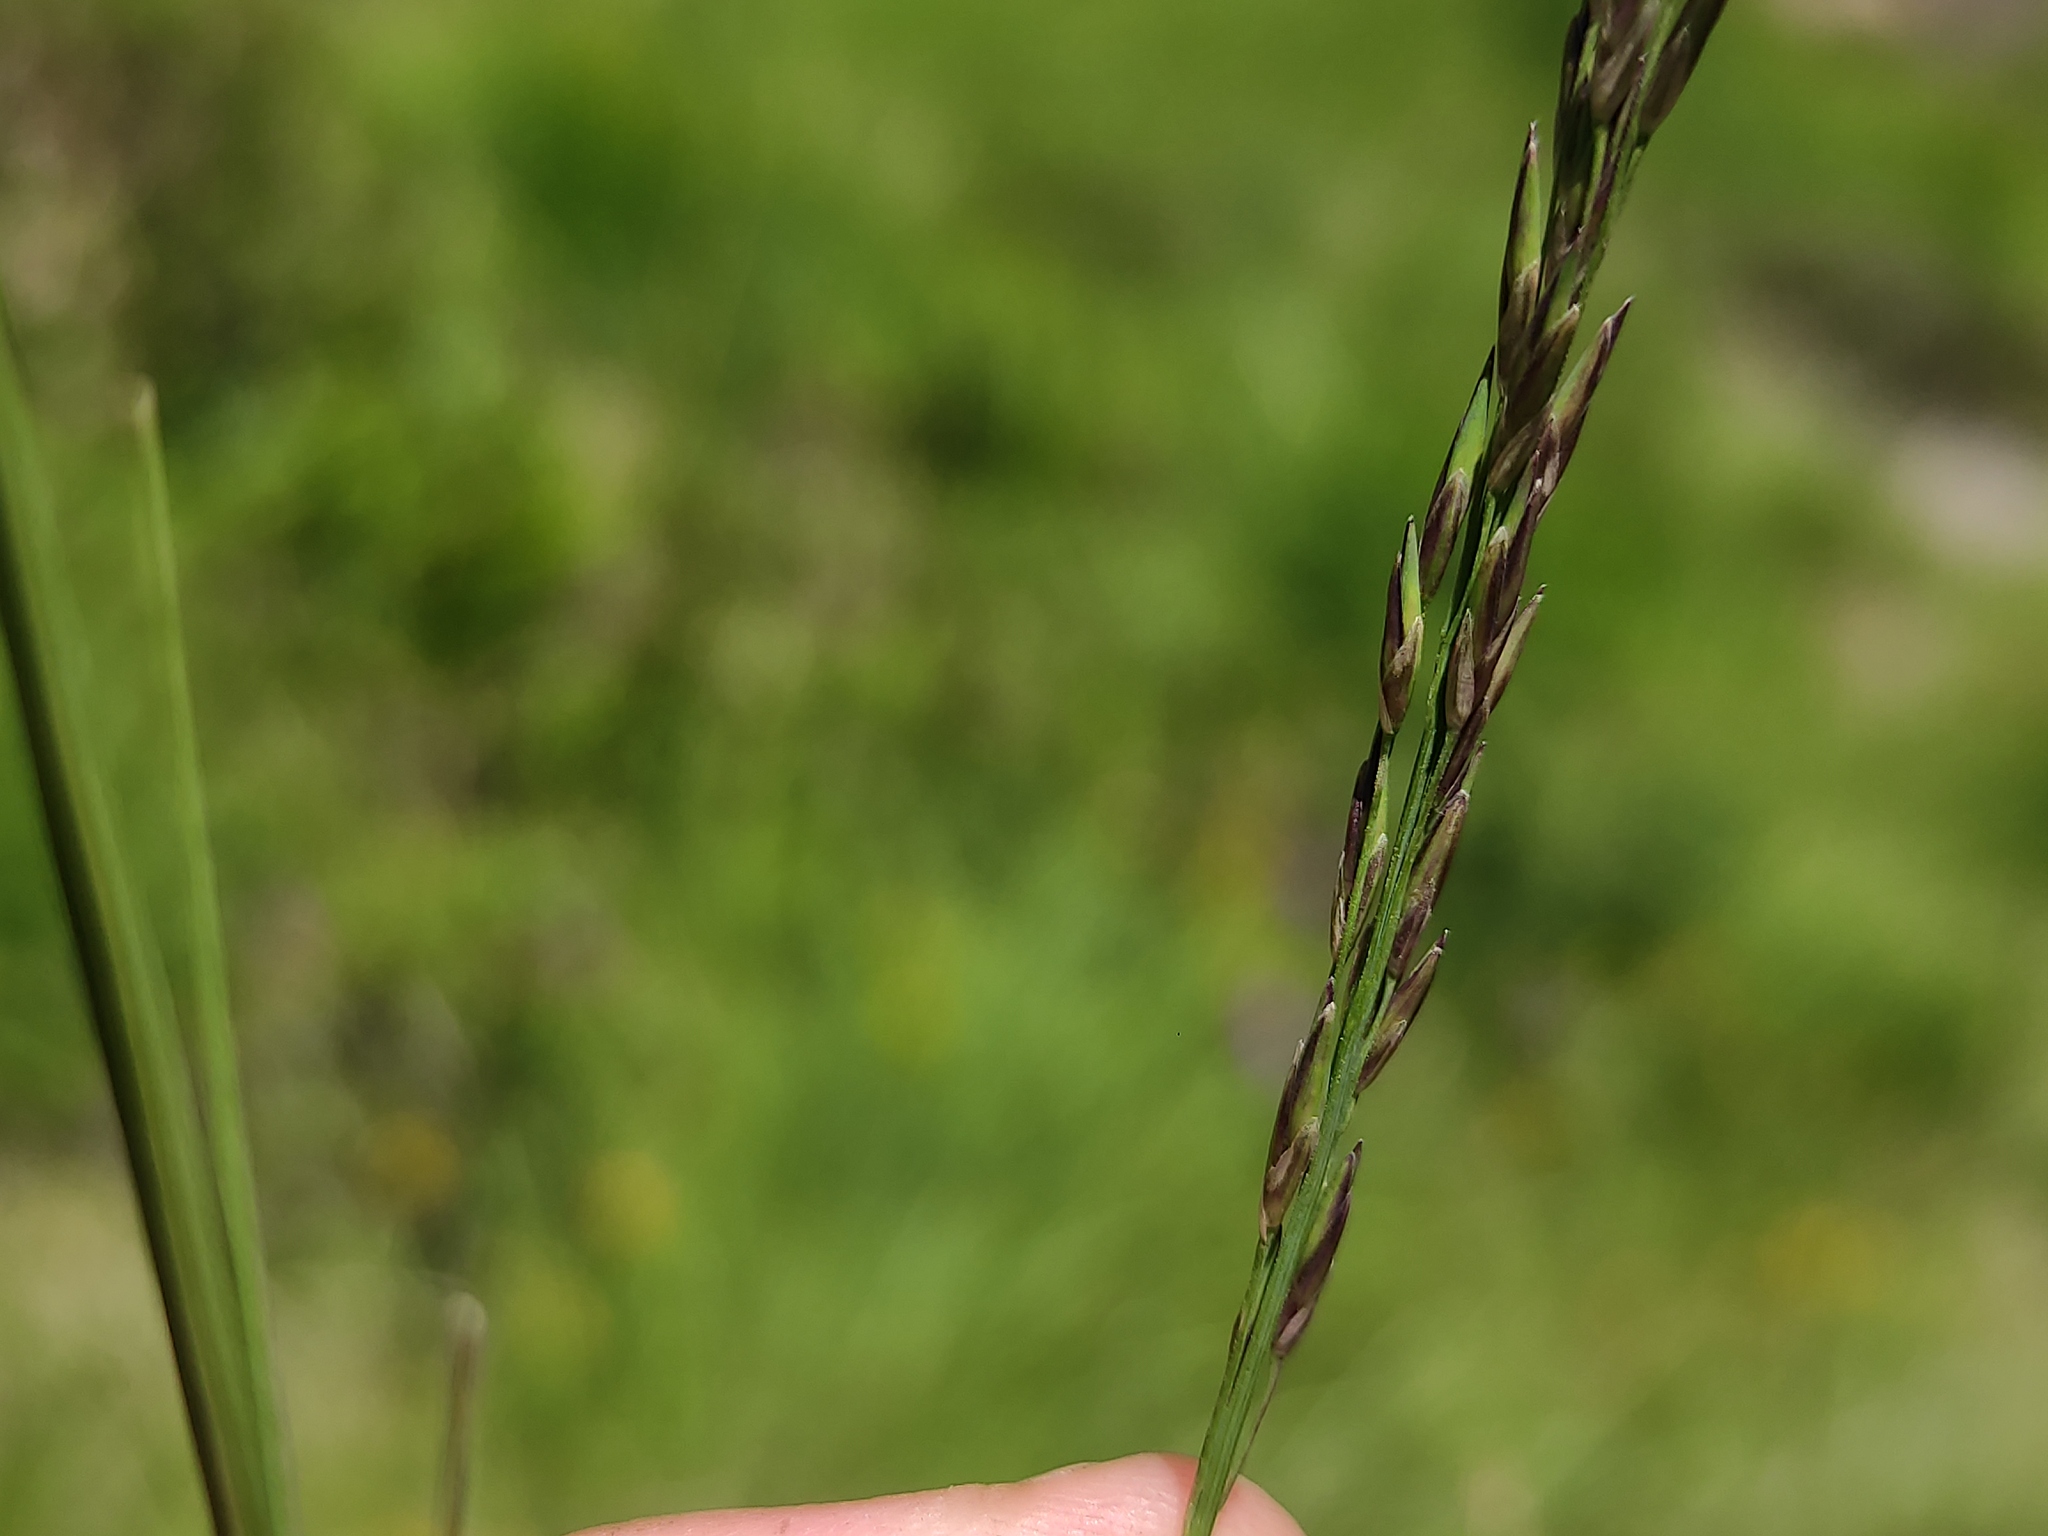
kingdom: Plantae
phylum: Tracheophyta
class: Liliopsida
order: Poales
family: Poaceae
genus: Molinia
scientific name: Molinia caerulea
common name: Purple moor-grass
